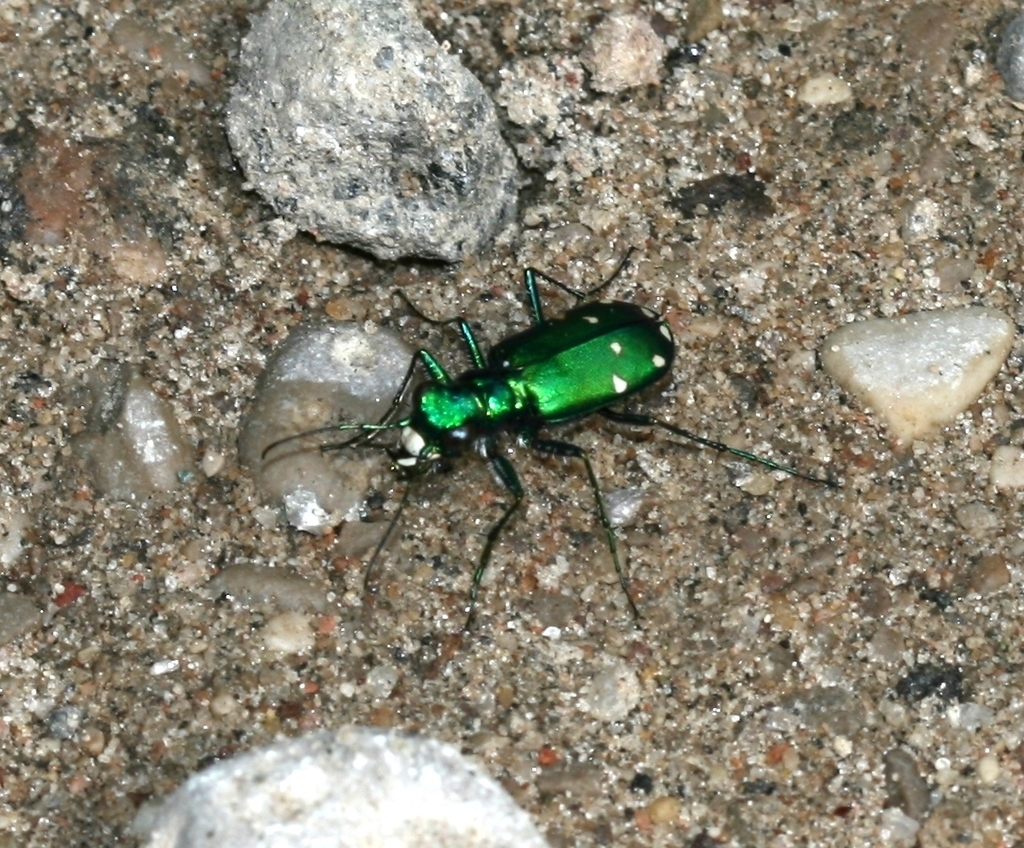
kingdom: Animalia
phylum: Arthropoda
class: Insecta
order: Coleoptera
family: Carabidae
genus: Cicindela
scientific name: Cicindela sexguttata
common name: Six-spotted tiger beetle
